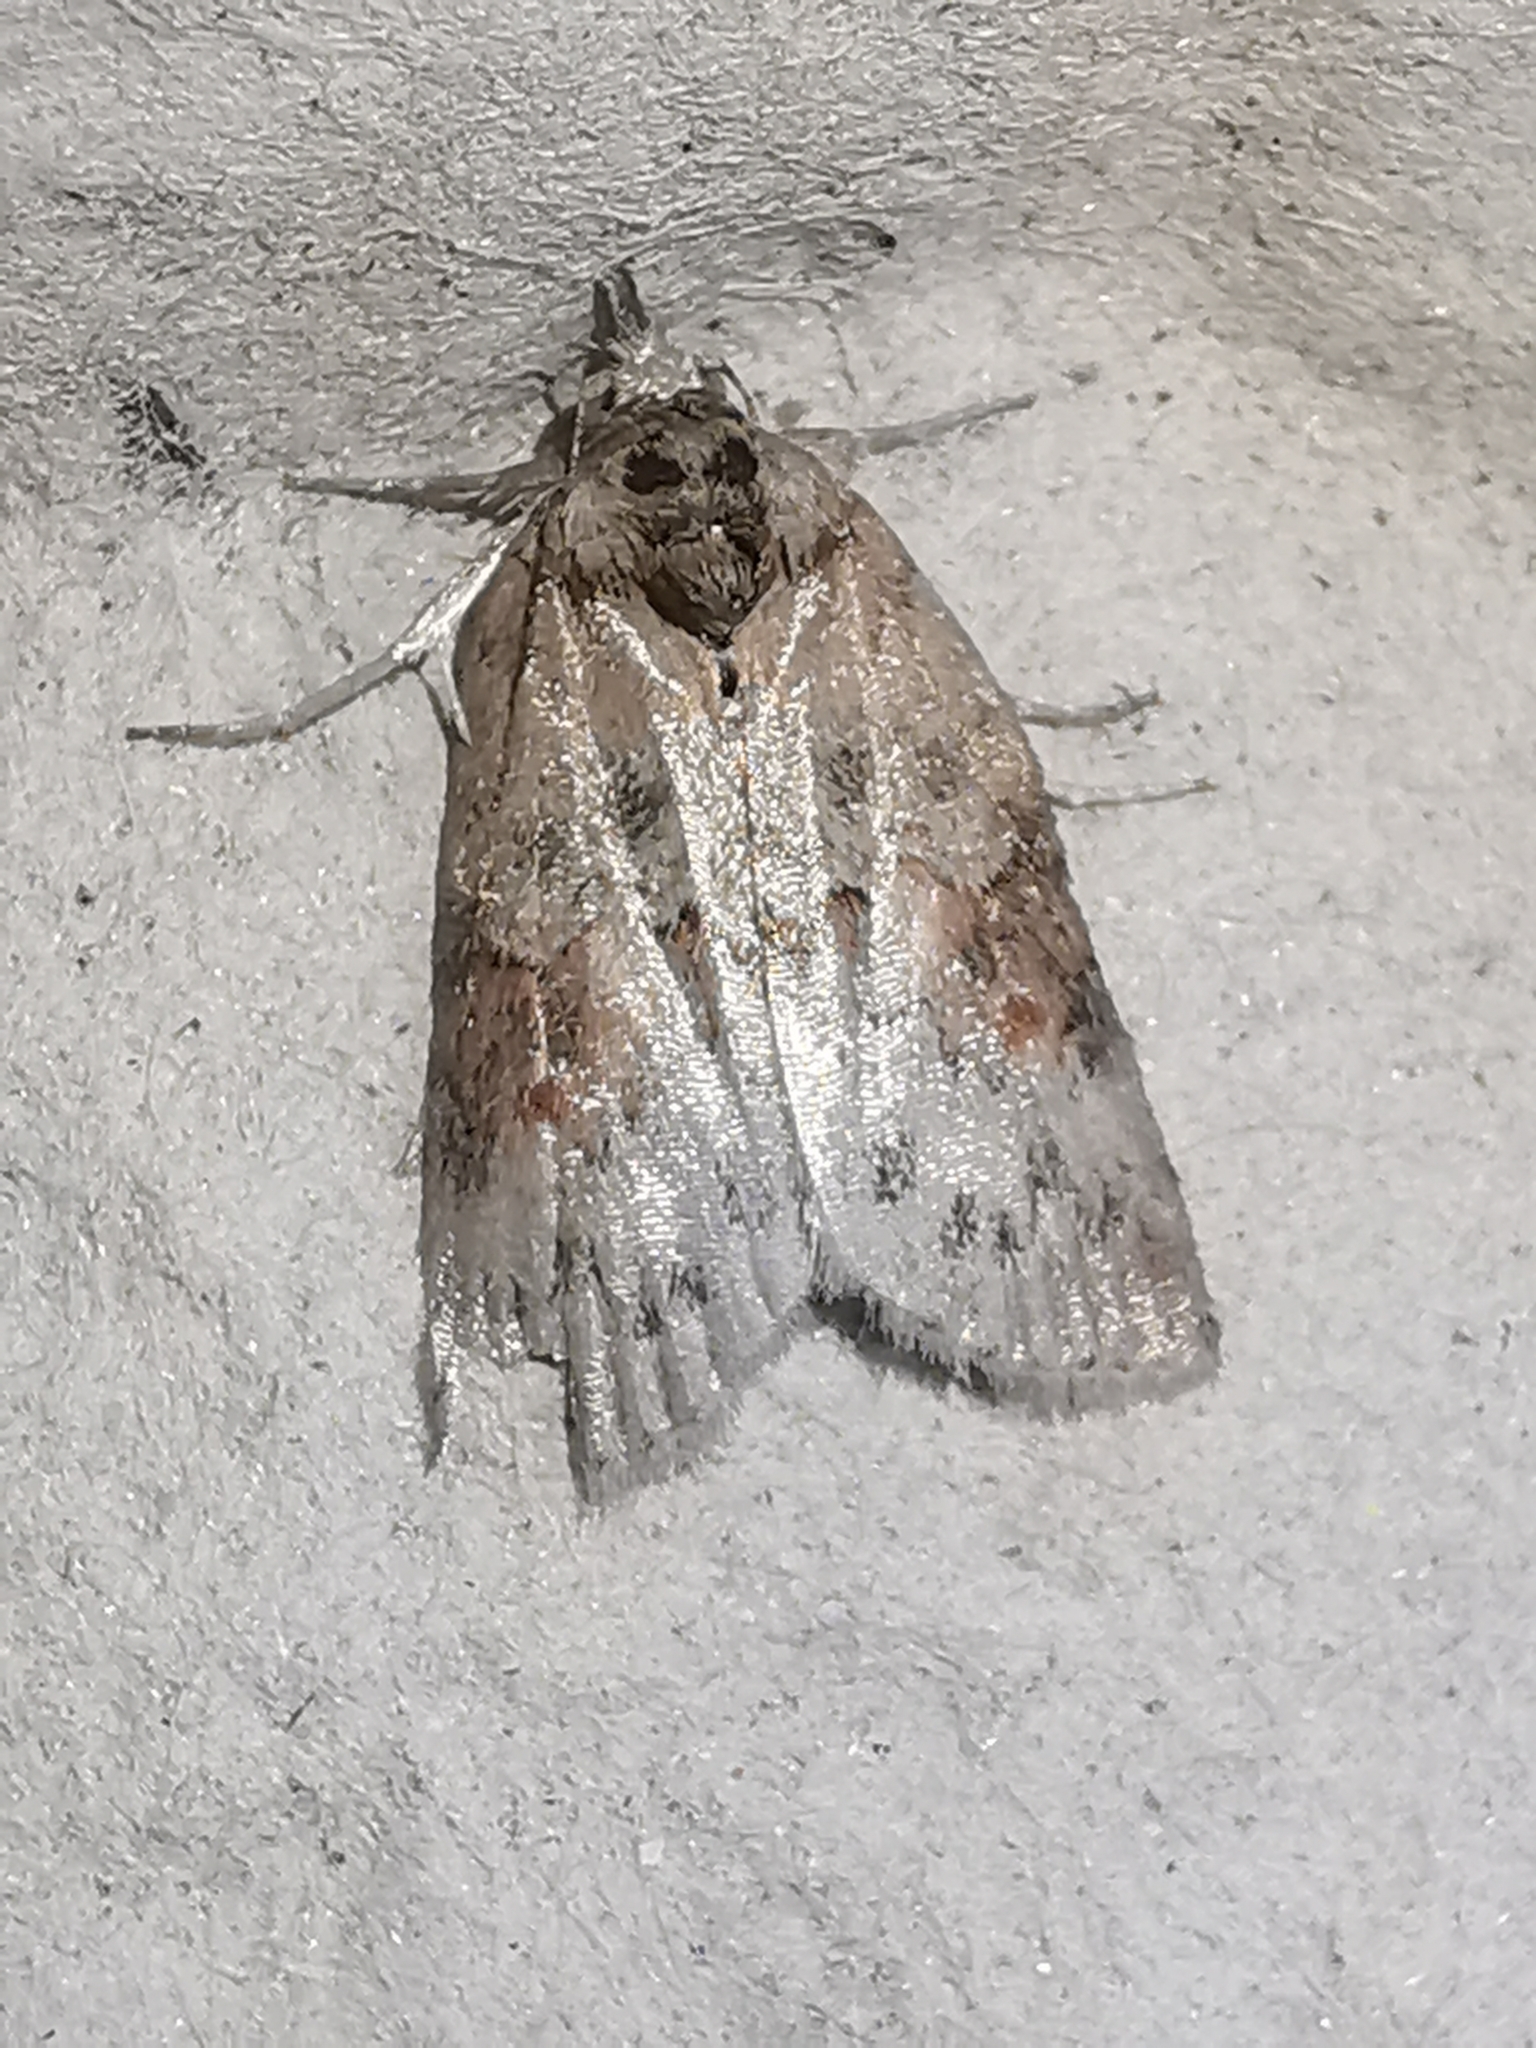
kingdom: Animalia
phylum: Arthropoda
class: Insecta
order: Lepidoptera
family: Nolidae
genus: Nycteola
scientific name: Nycteola revayana
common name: Oak nycteoline
